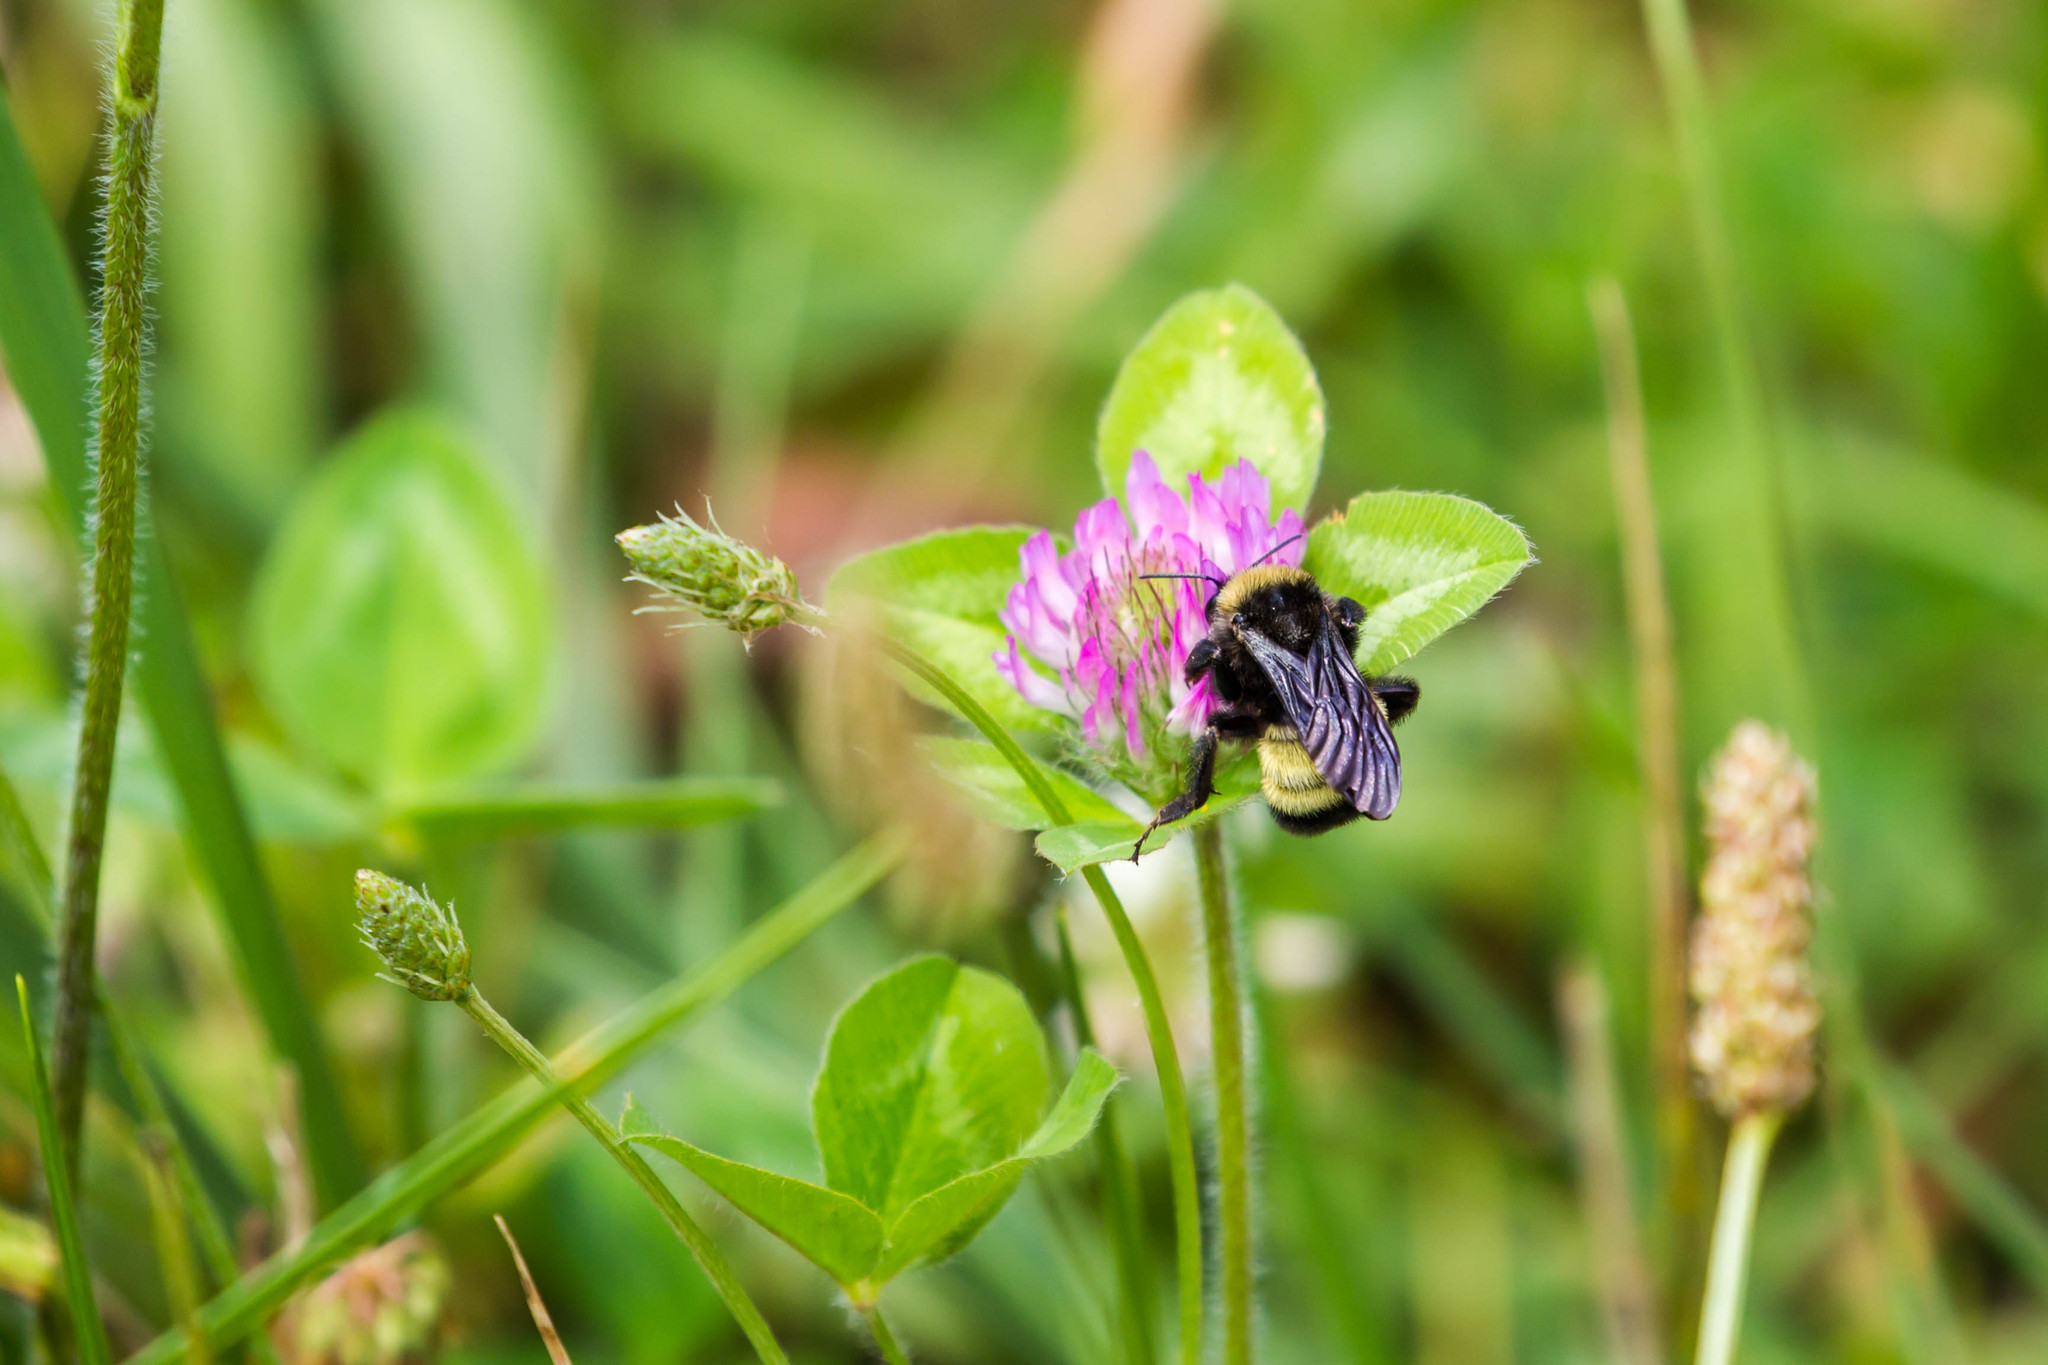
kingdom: Animalia
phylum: Arthropoda
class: Insecta
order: Hymenoptera
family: Apidae
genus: Bombus
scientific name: Bombus pensylvanicus
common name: Bumble bee
